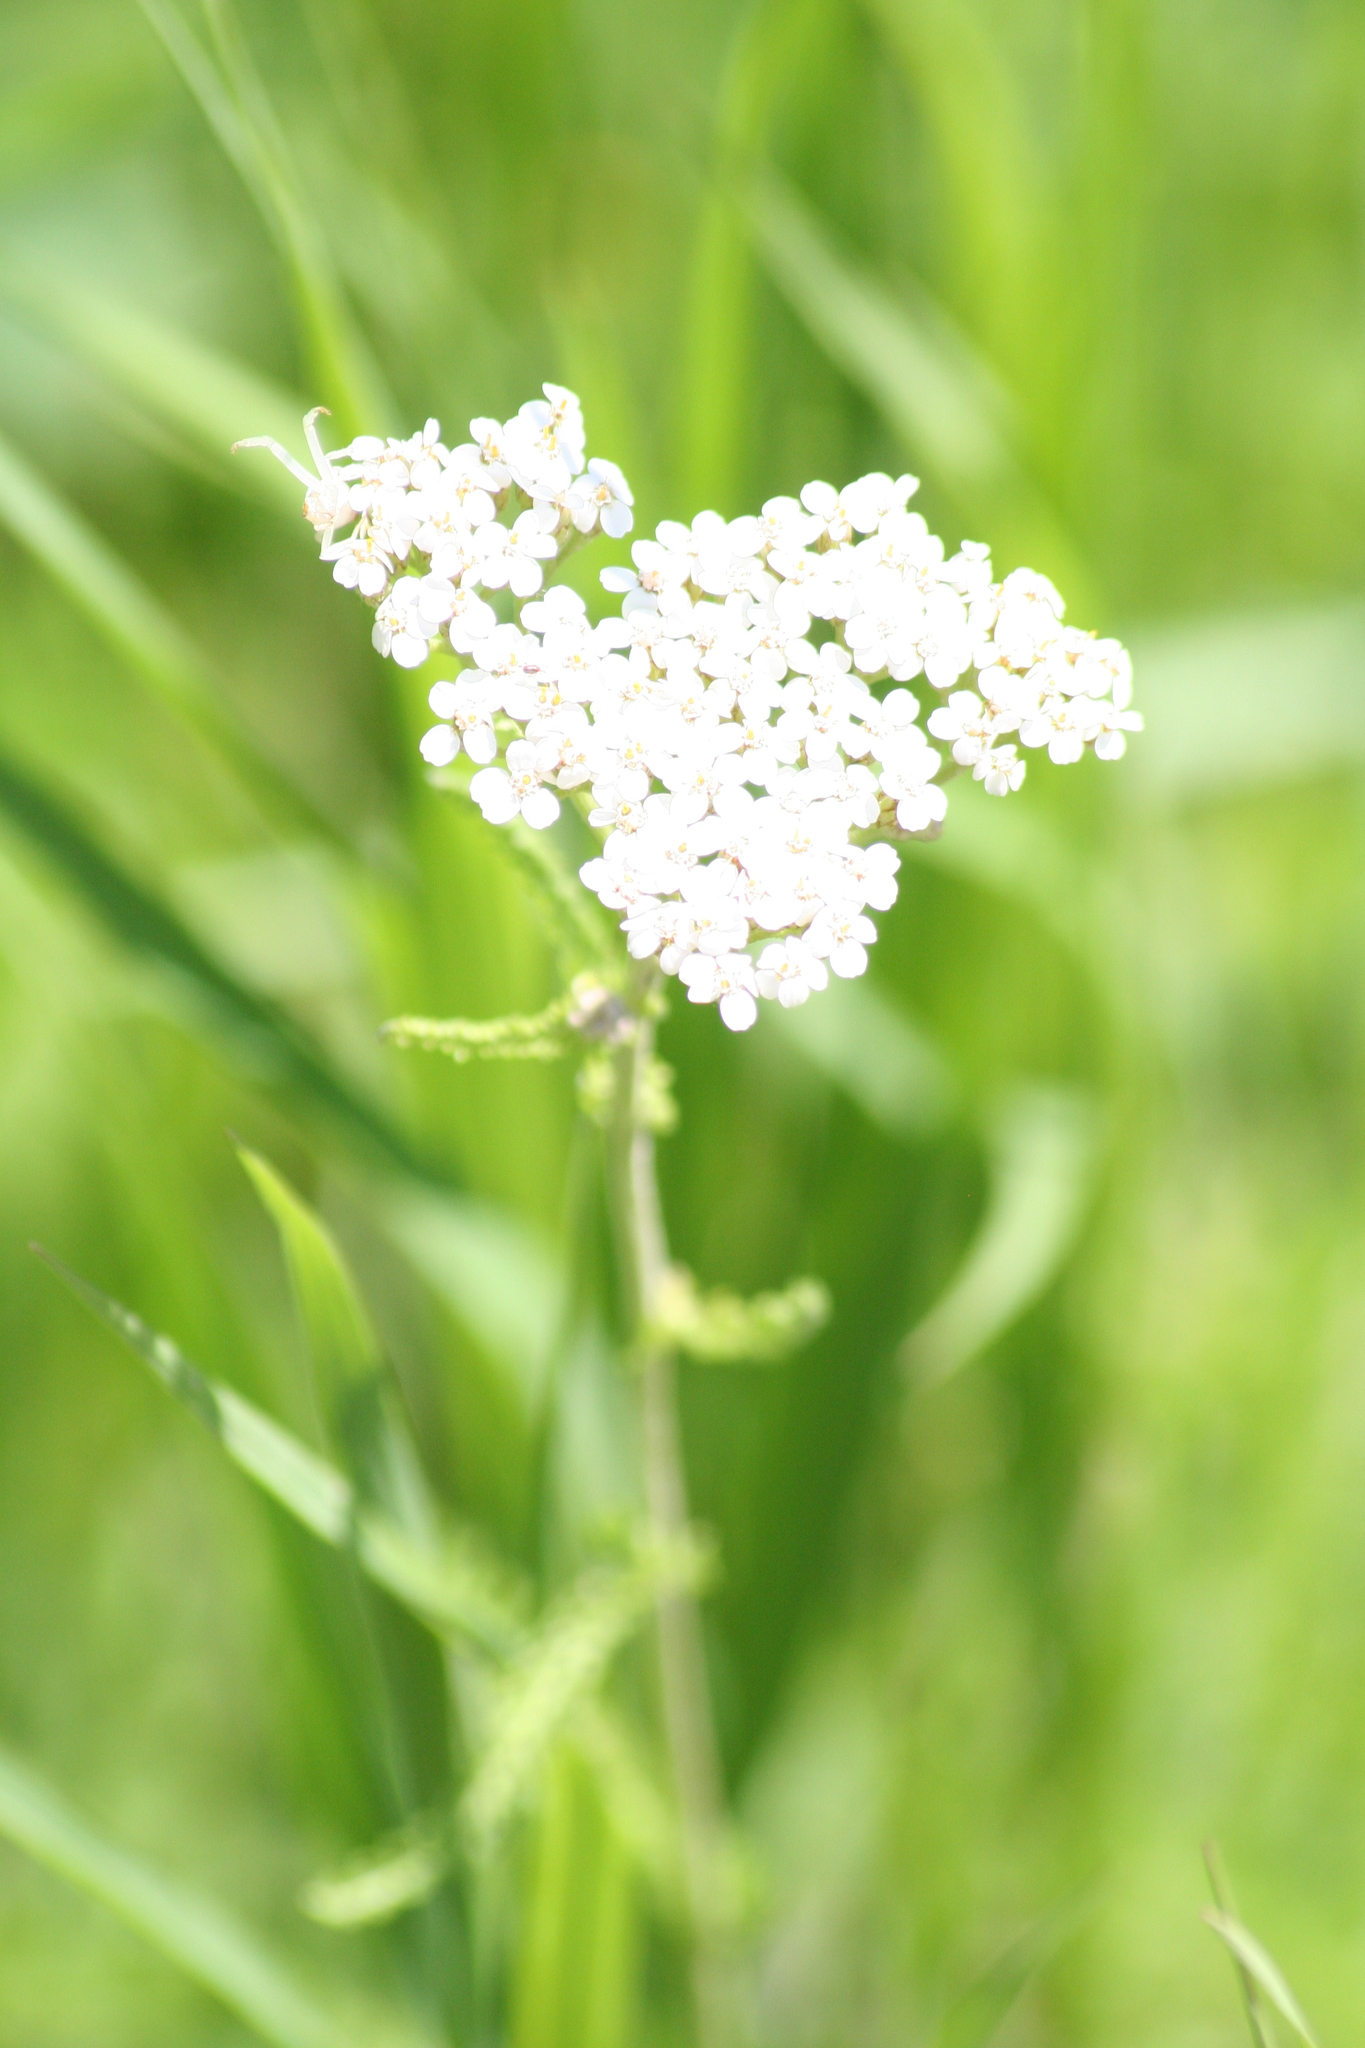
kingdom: Plantae
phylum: Tracheophyta
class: Magnoliopsida
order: Asterales
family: Asteraceae
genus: Achillea
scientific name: Achillea millefolium
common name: Yarrow
